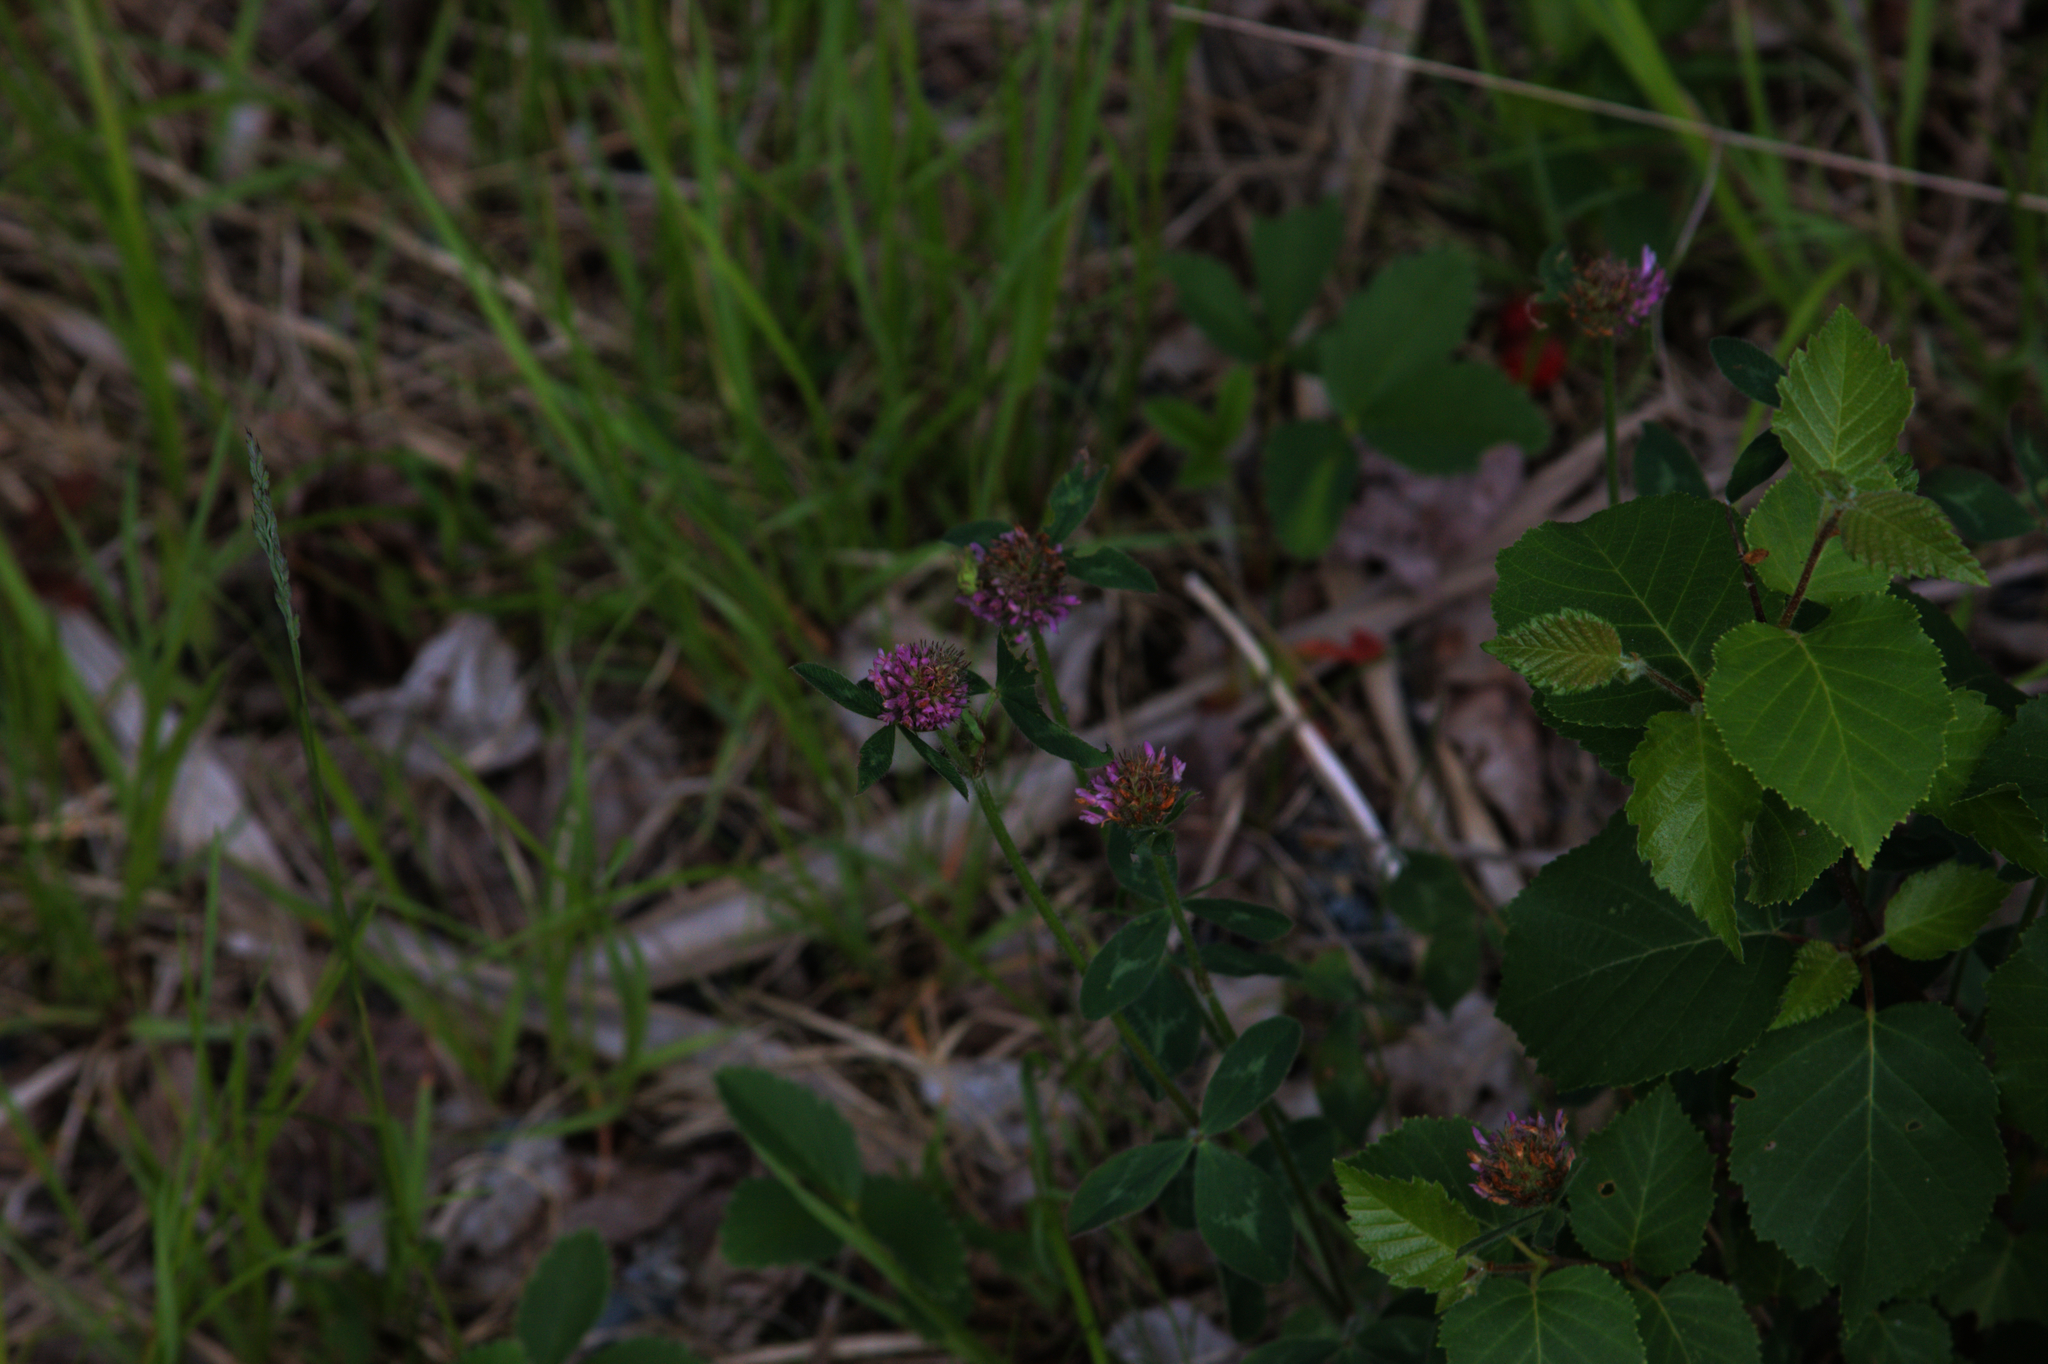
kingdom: Plantae
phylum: Tracheophyta
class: Magnoliopsida
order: Fabales
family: Fabaceae
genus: Trifolium
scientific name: Trifolium pratense
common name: Red clover
